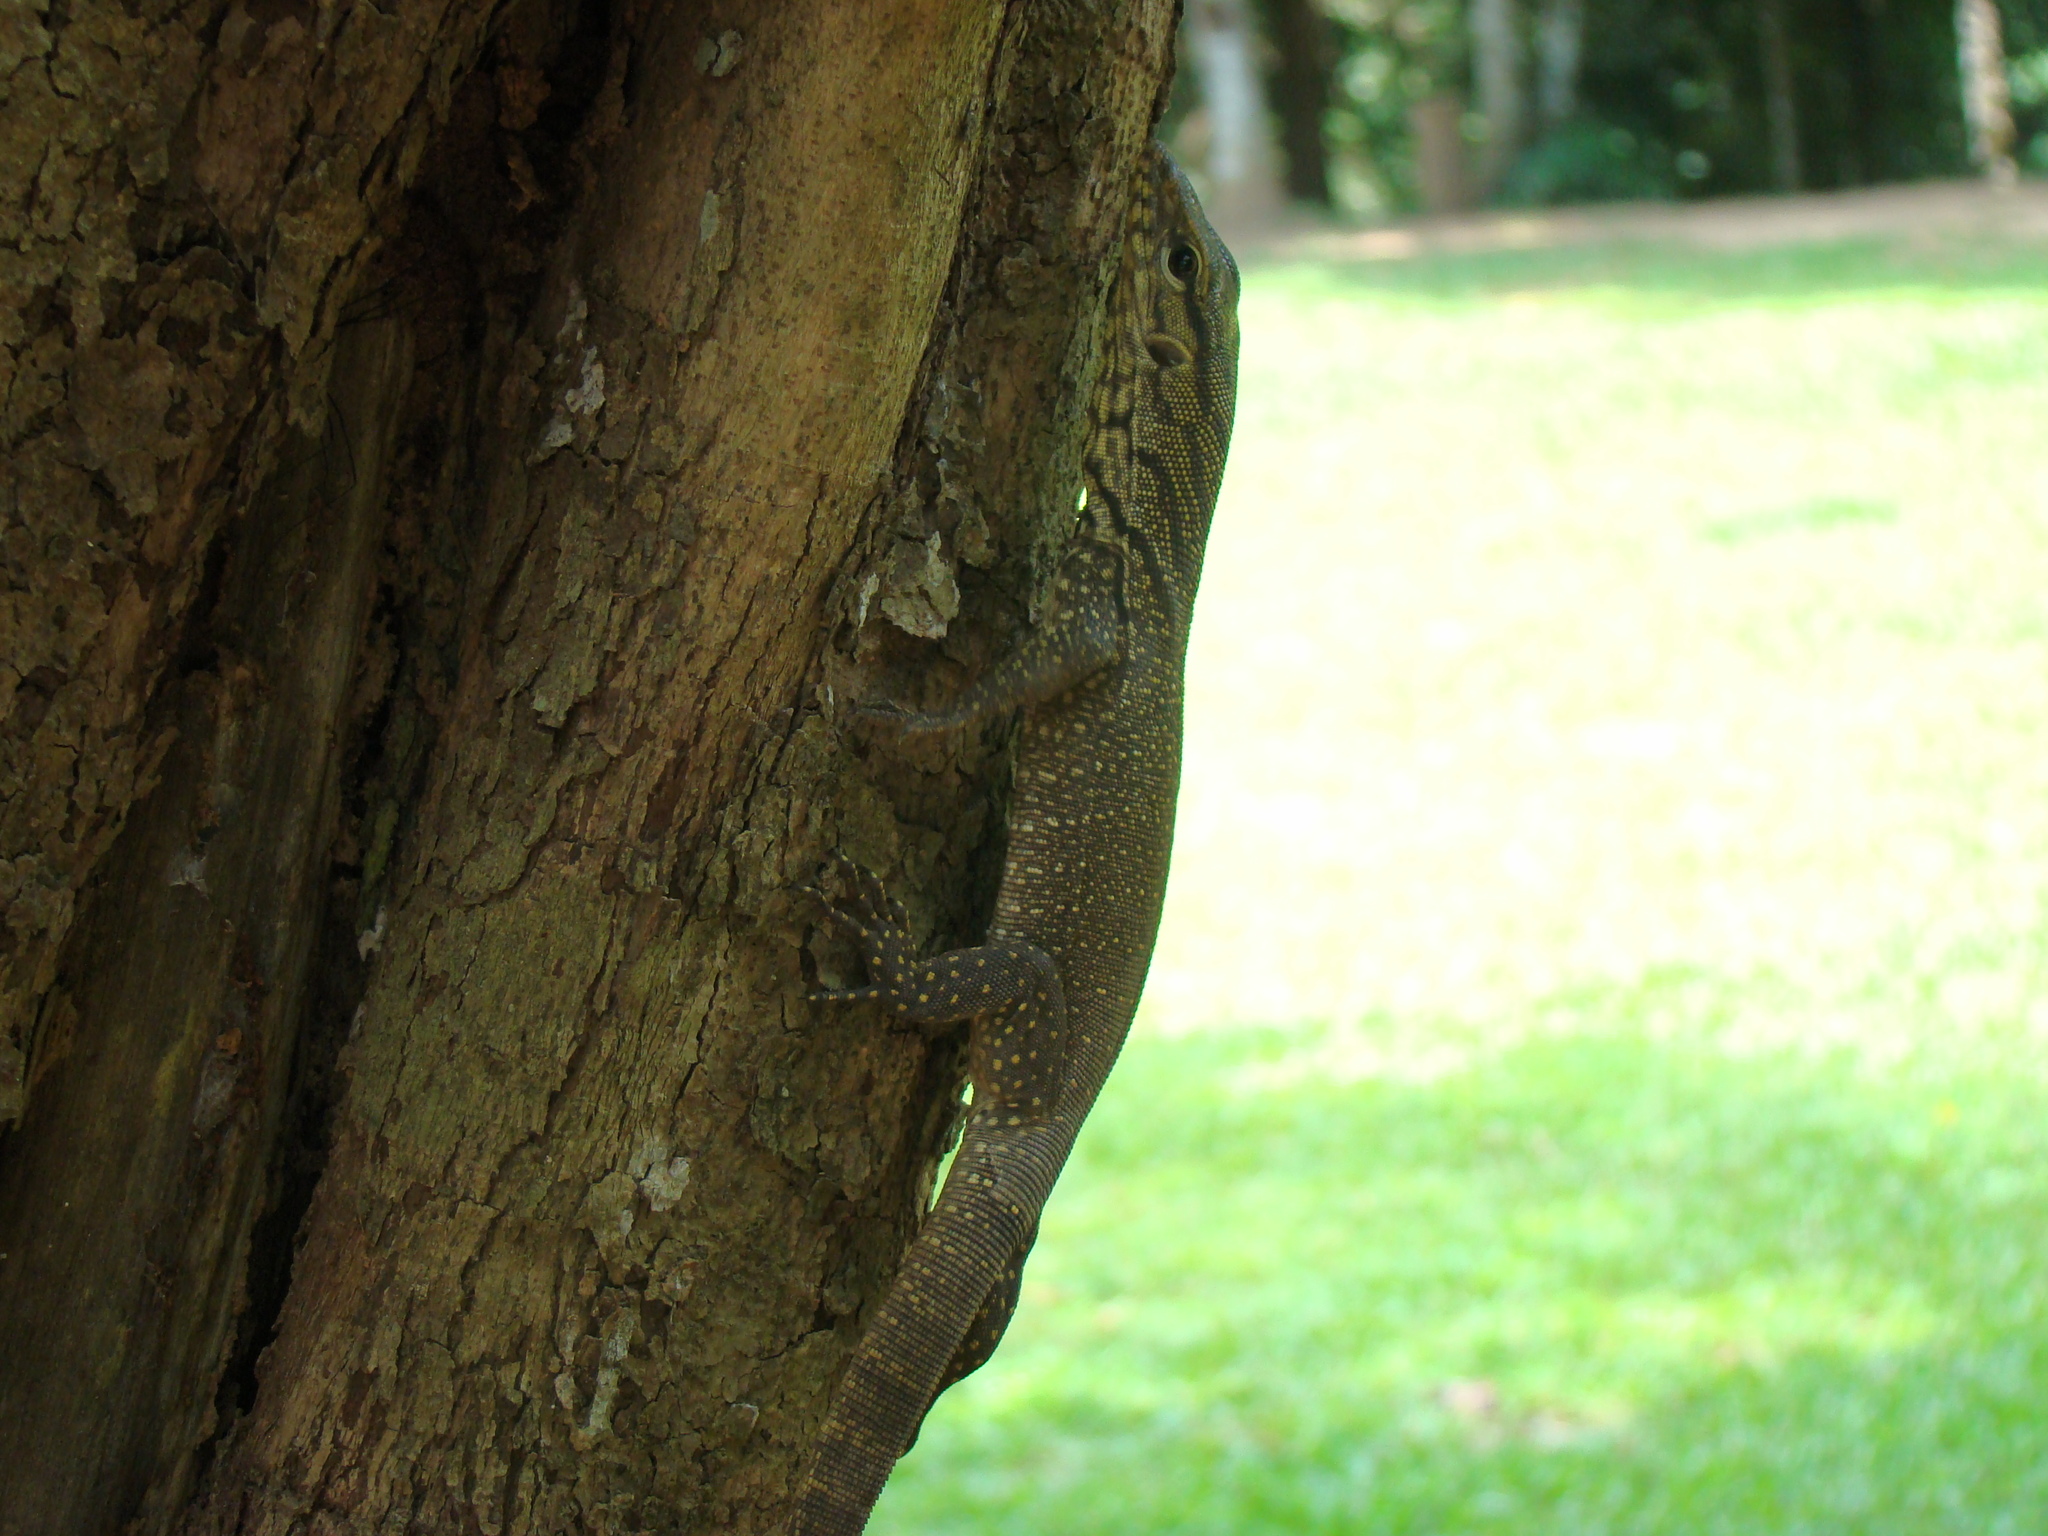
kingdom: Animalia
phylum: Chordata
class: Squamata
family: Varanidae
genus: Varanus
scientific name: Varanus nebulosus
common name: Clouded monitor
